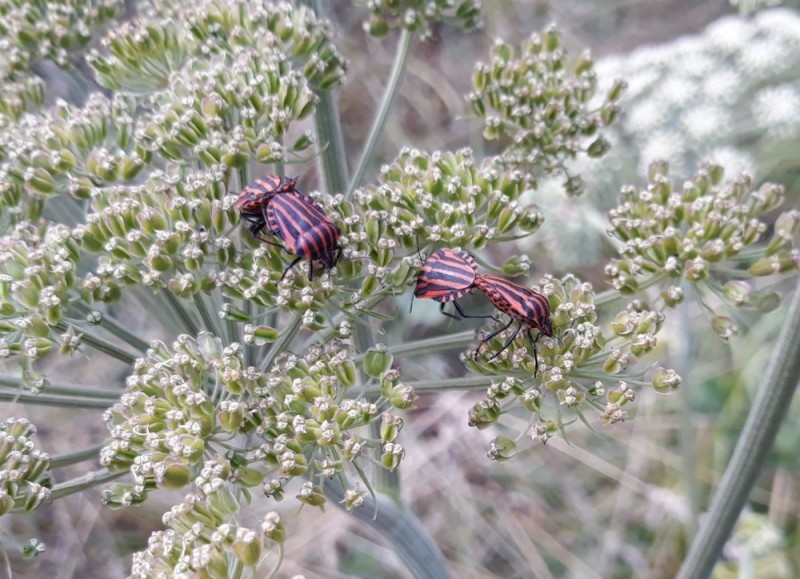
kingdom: Animalia
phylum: Arthropoda
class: Insecta
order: Hemiptera
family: Pentatomidae
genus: Graphosoma
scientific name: Graphosoma italicum
